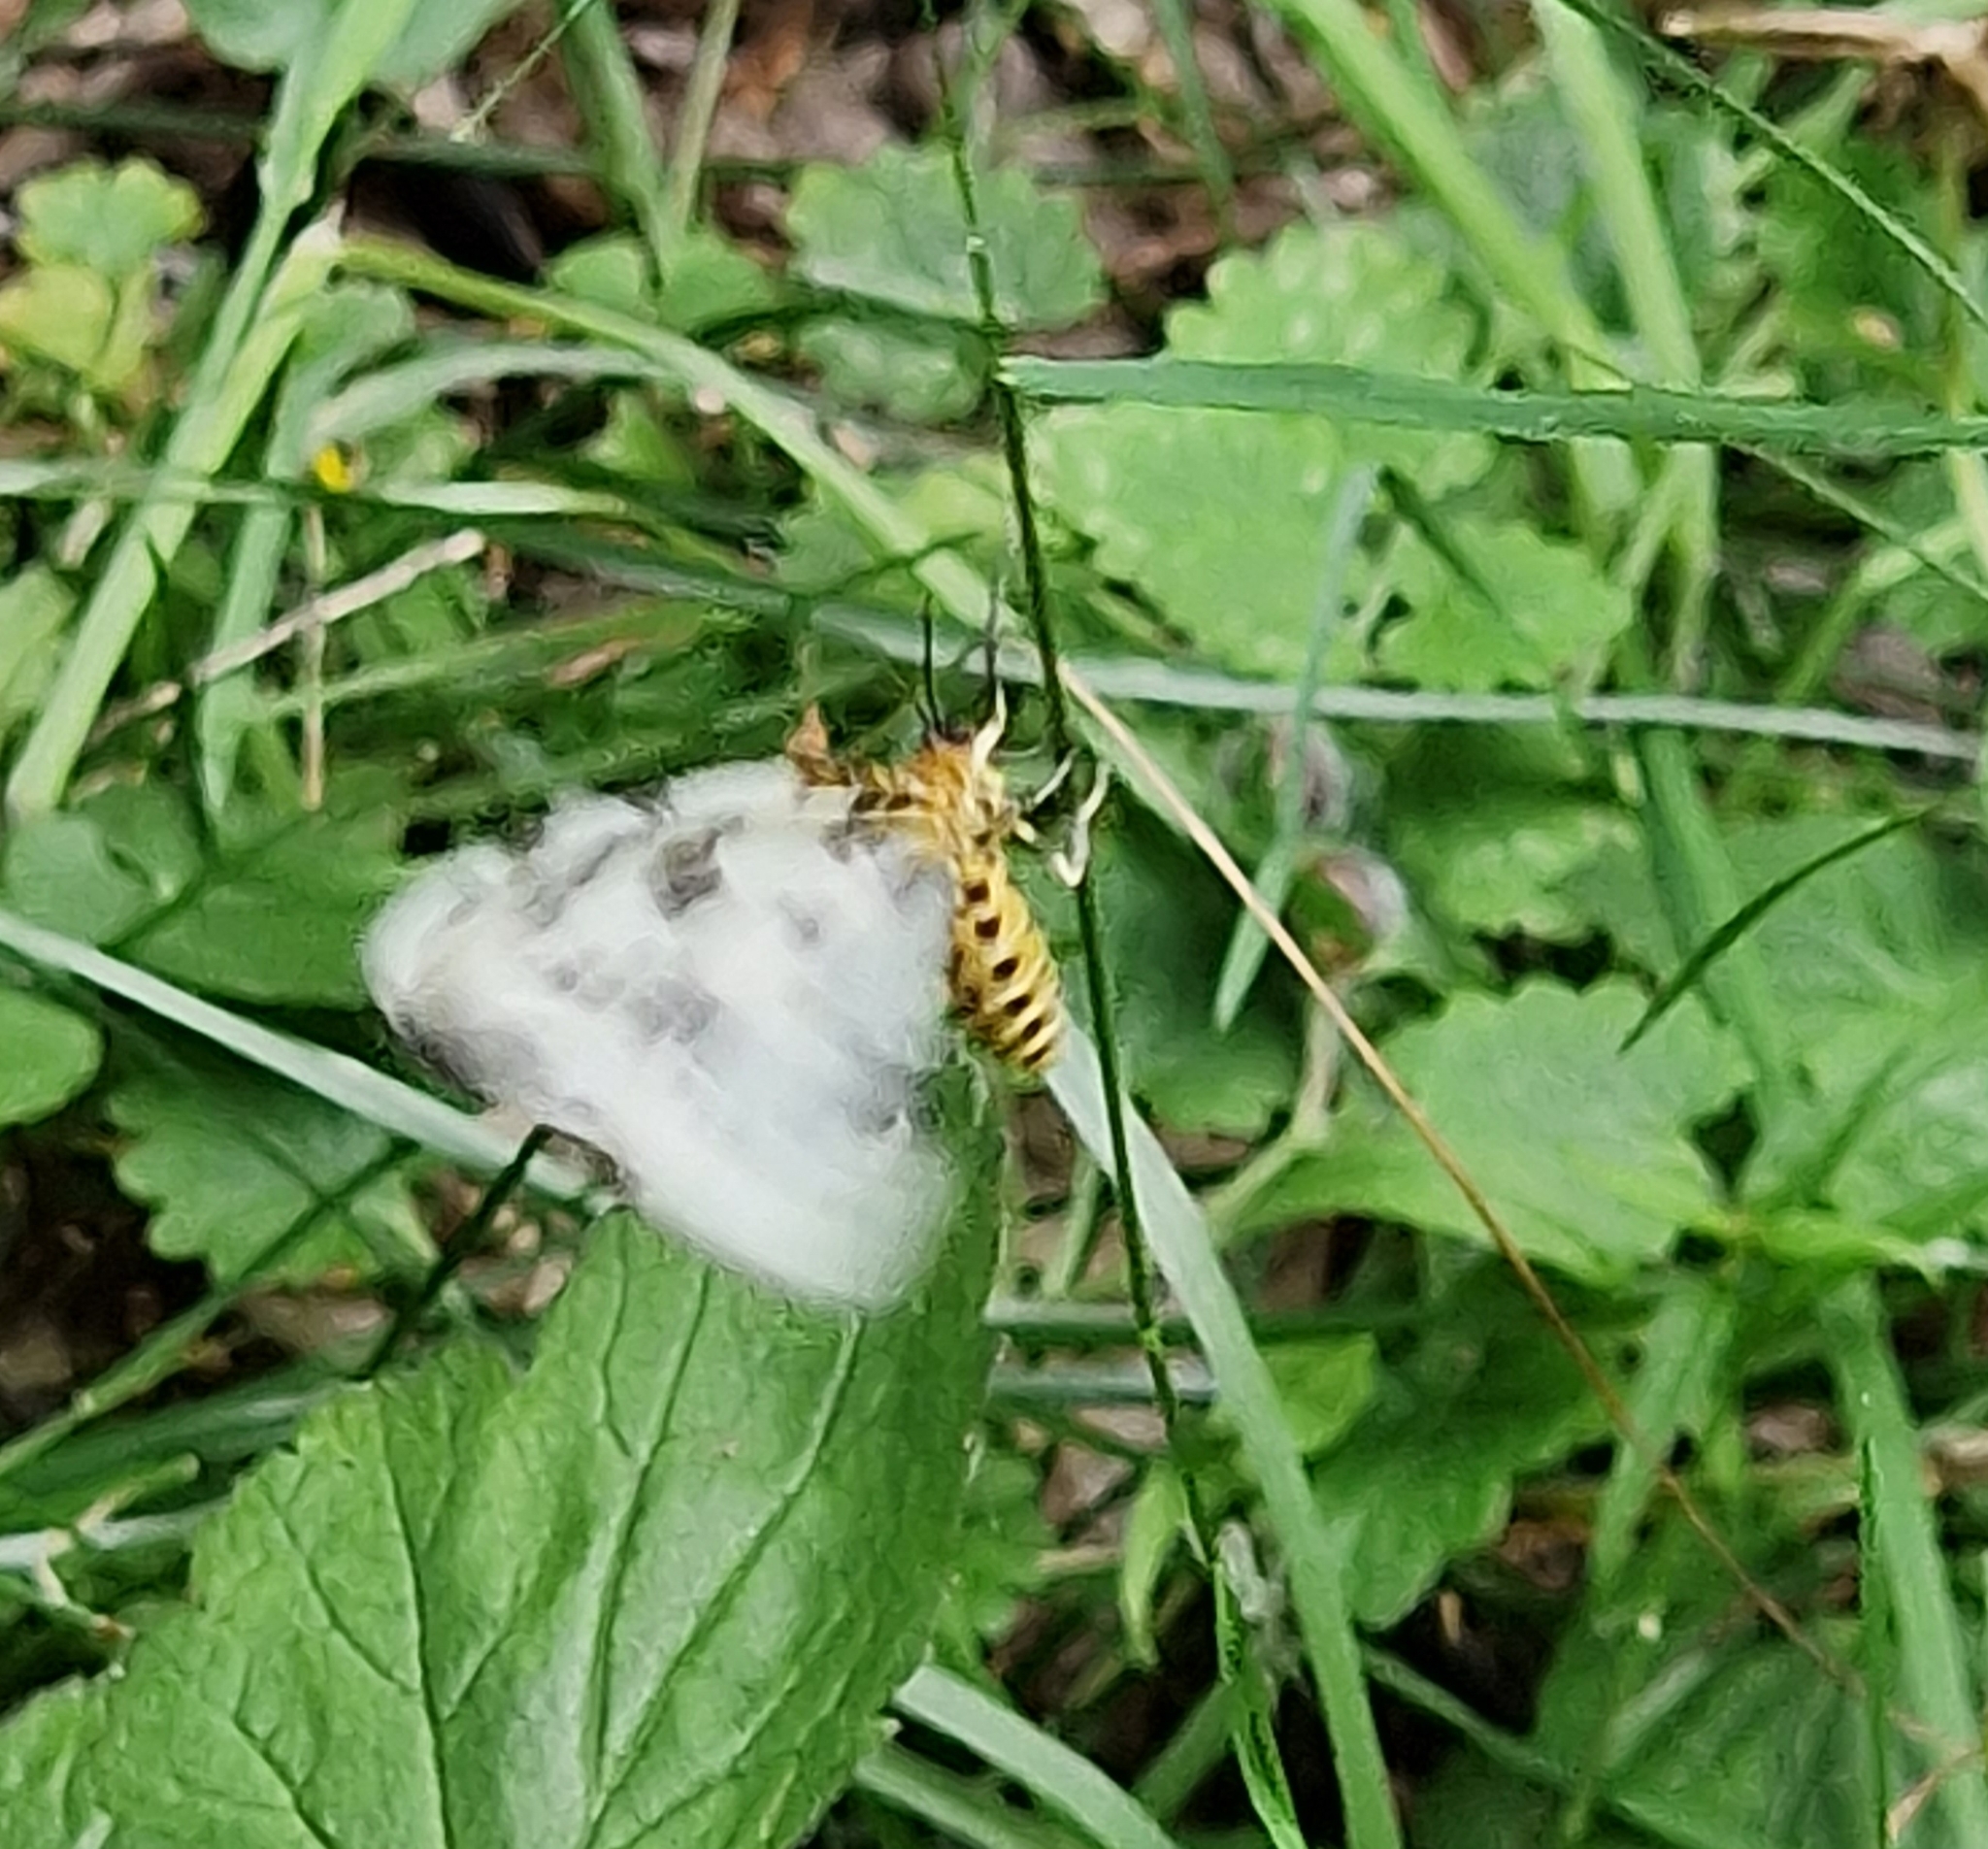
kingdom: Animalia
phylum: Arthropoda
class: Insecta
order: Lepidoptera
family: Geometridae
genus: Abraxas
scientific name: Abraxas sylvata
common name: Clouded magpie
